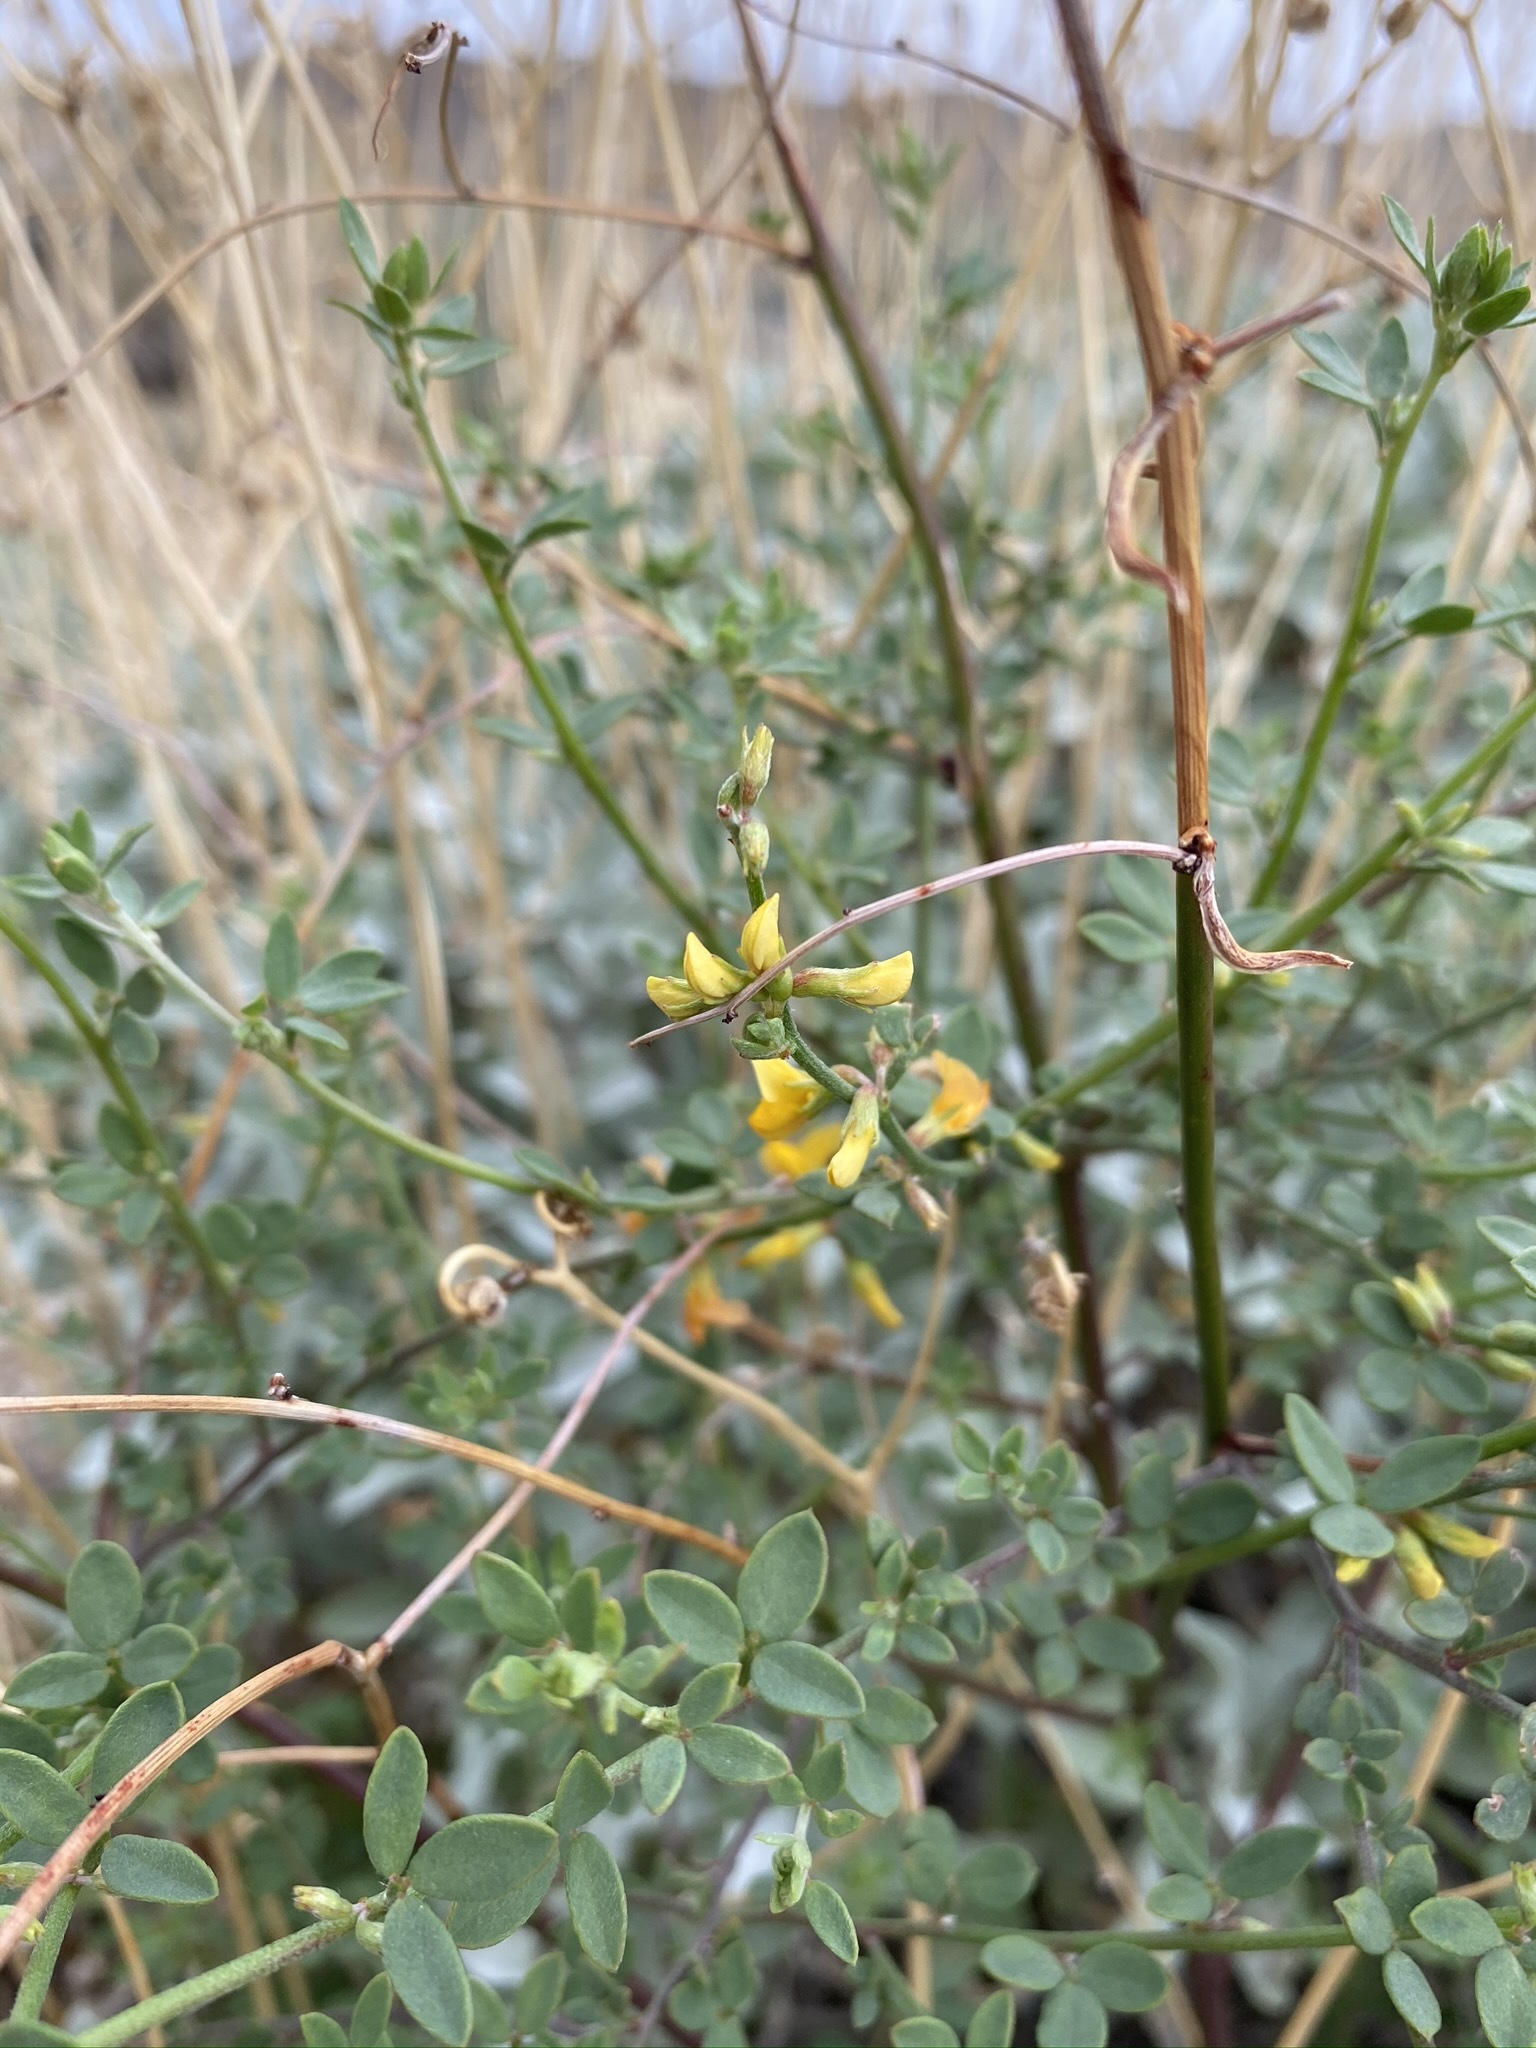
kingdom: Plantae
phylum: Tracheophyta
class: Magnoliopsida
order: Fabales
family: Fabaceae
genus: Acmispon
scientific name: Acmispon glaber
